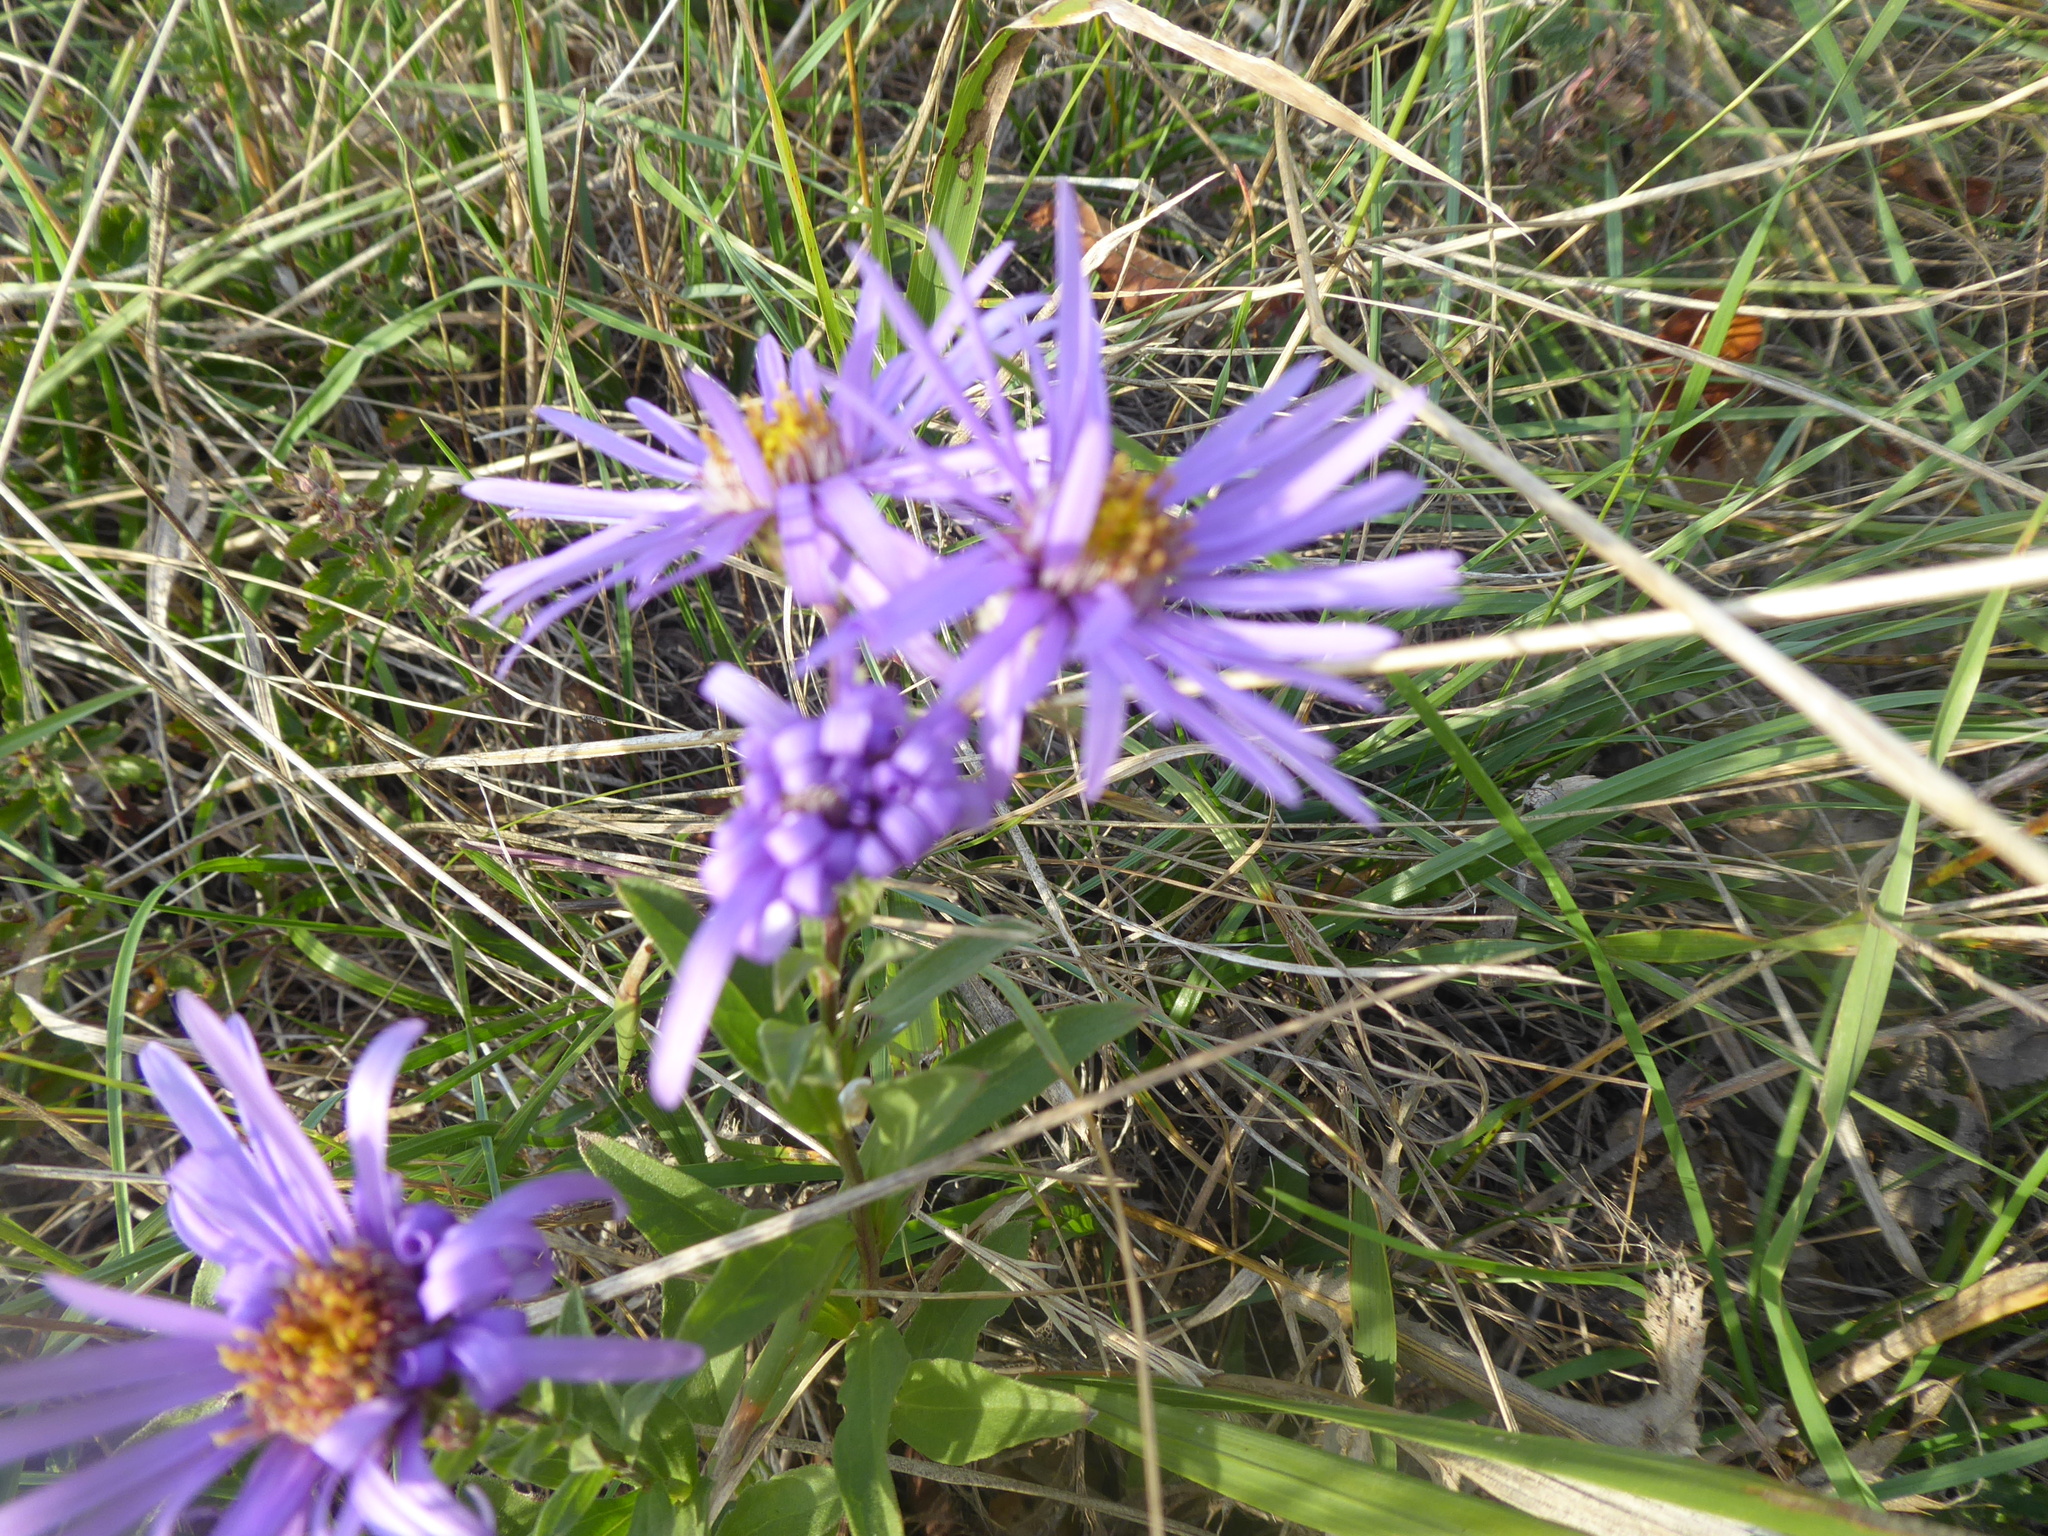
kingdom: Plantae
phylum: Tracheophyta
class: Magnoliopsida
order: Asterales
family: Asteraceae
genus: Aster
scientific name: Aster amellus
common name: European michaelmas daisy
